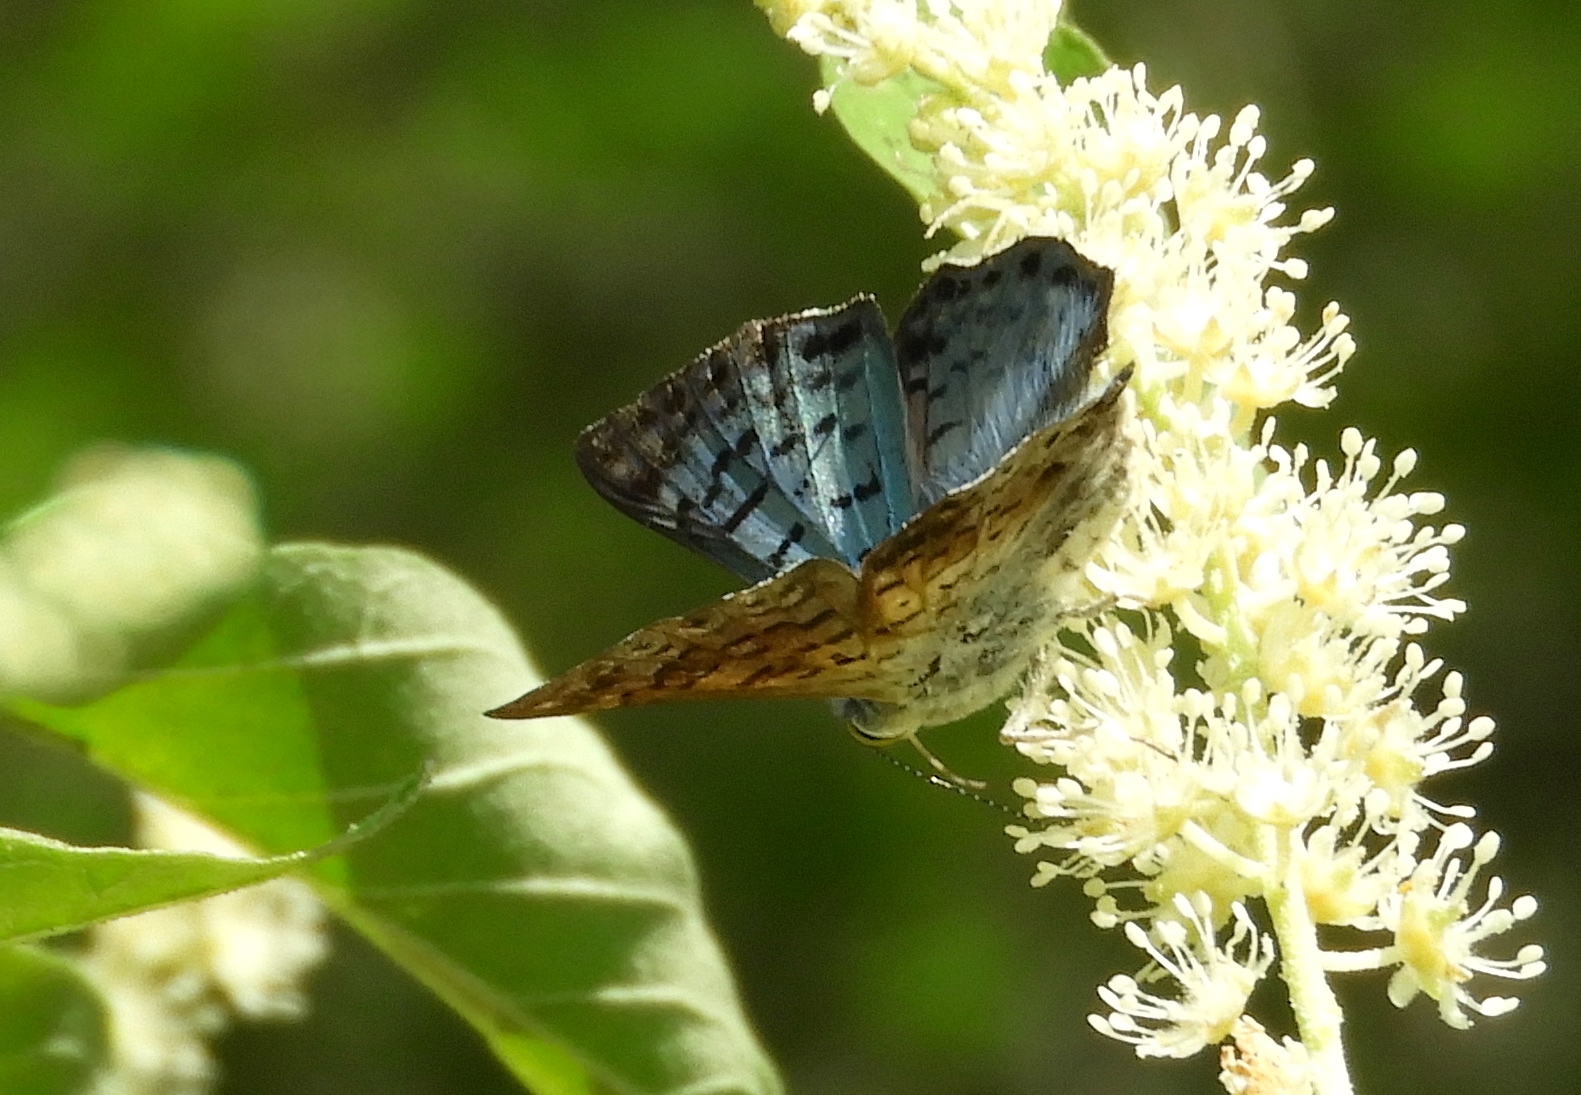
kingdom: Animalia
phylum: Arthropoda
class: Insecta
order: Lepidoptera
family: Riodinidae
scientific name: Riodinidae
